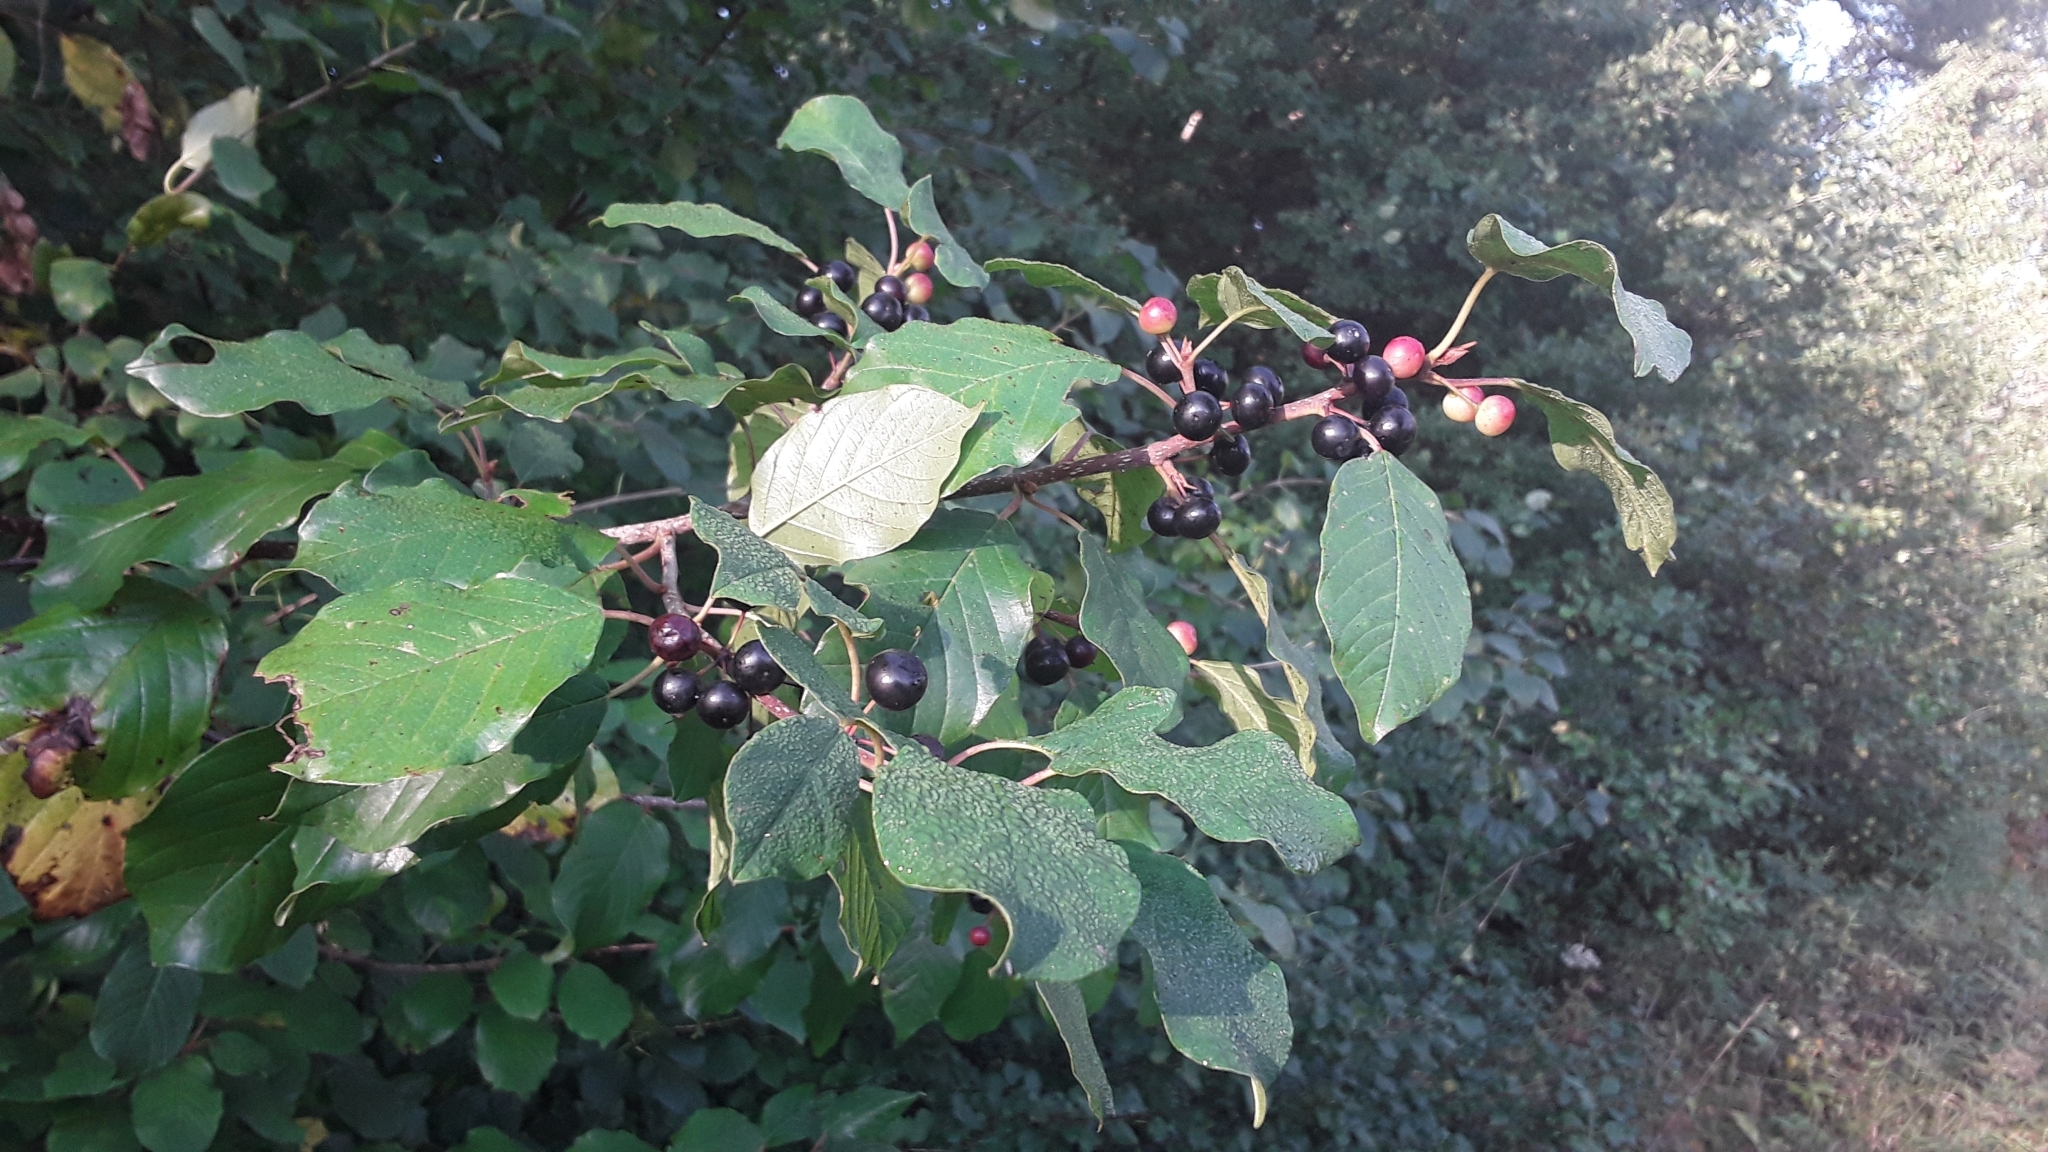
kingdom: Plantae
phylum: Tracheophyta
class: Magnoliopsida
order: Rosales
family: Rhamnaceae
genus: Frangula
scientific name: Frangula alnus
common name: Alder buckthorn
